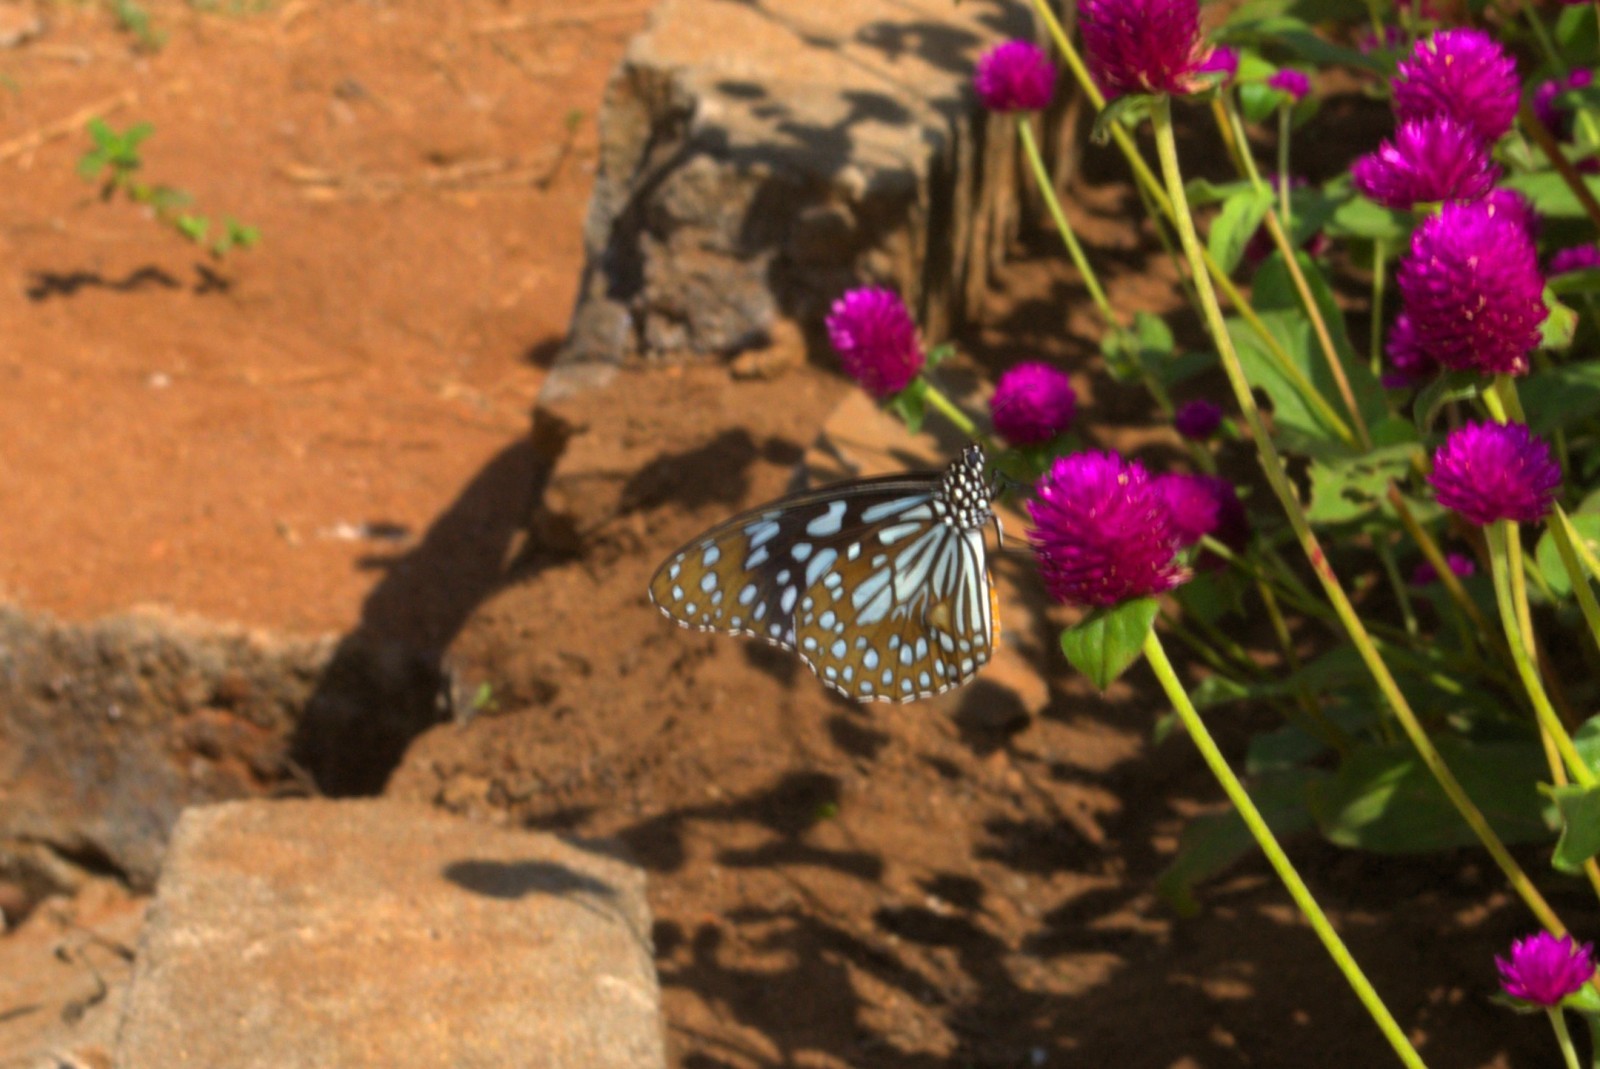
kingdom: Animalia
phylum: Arthropoda
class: Insecta
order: Lepidoptera
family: Nymphalidae
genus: Tirumala
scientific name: Tirumala limniace
